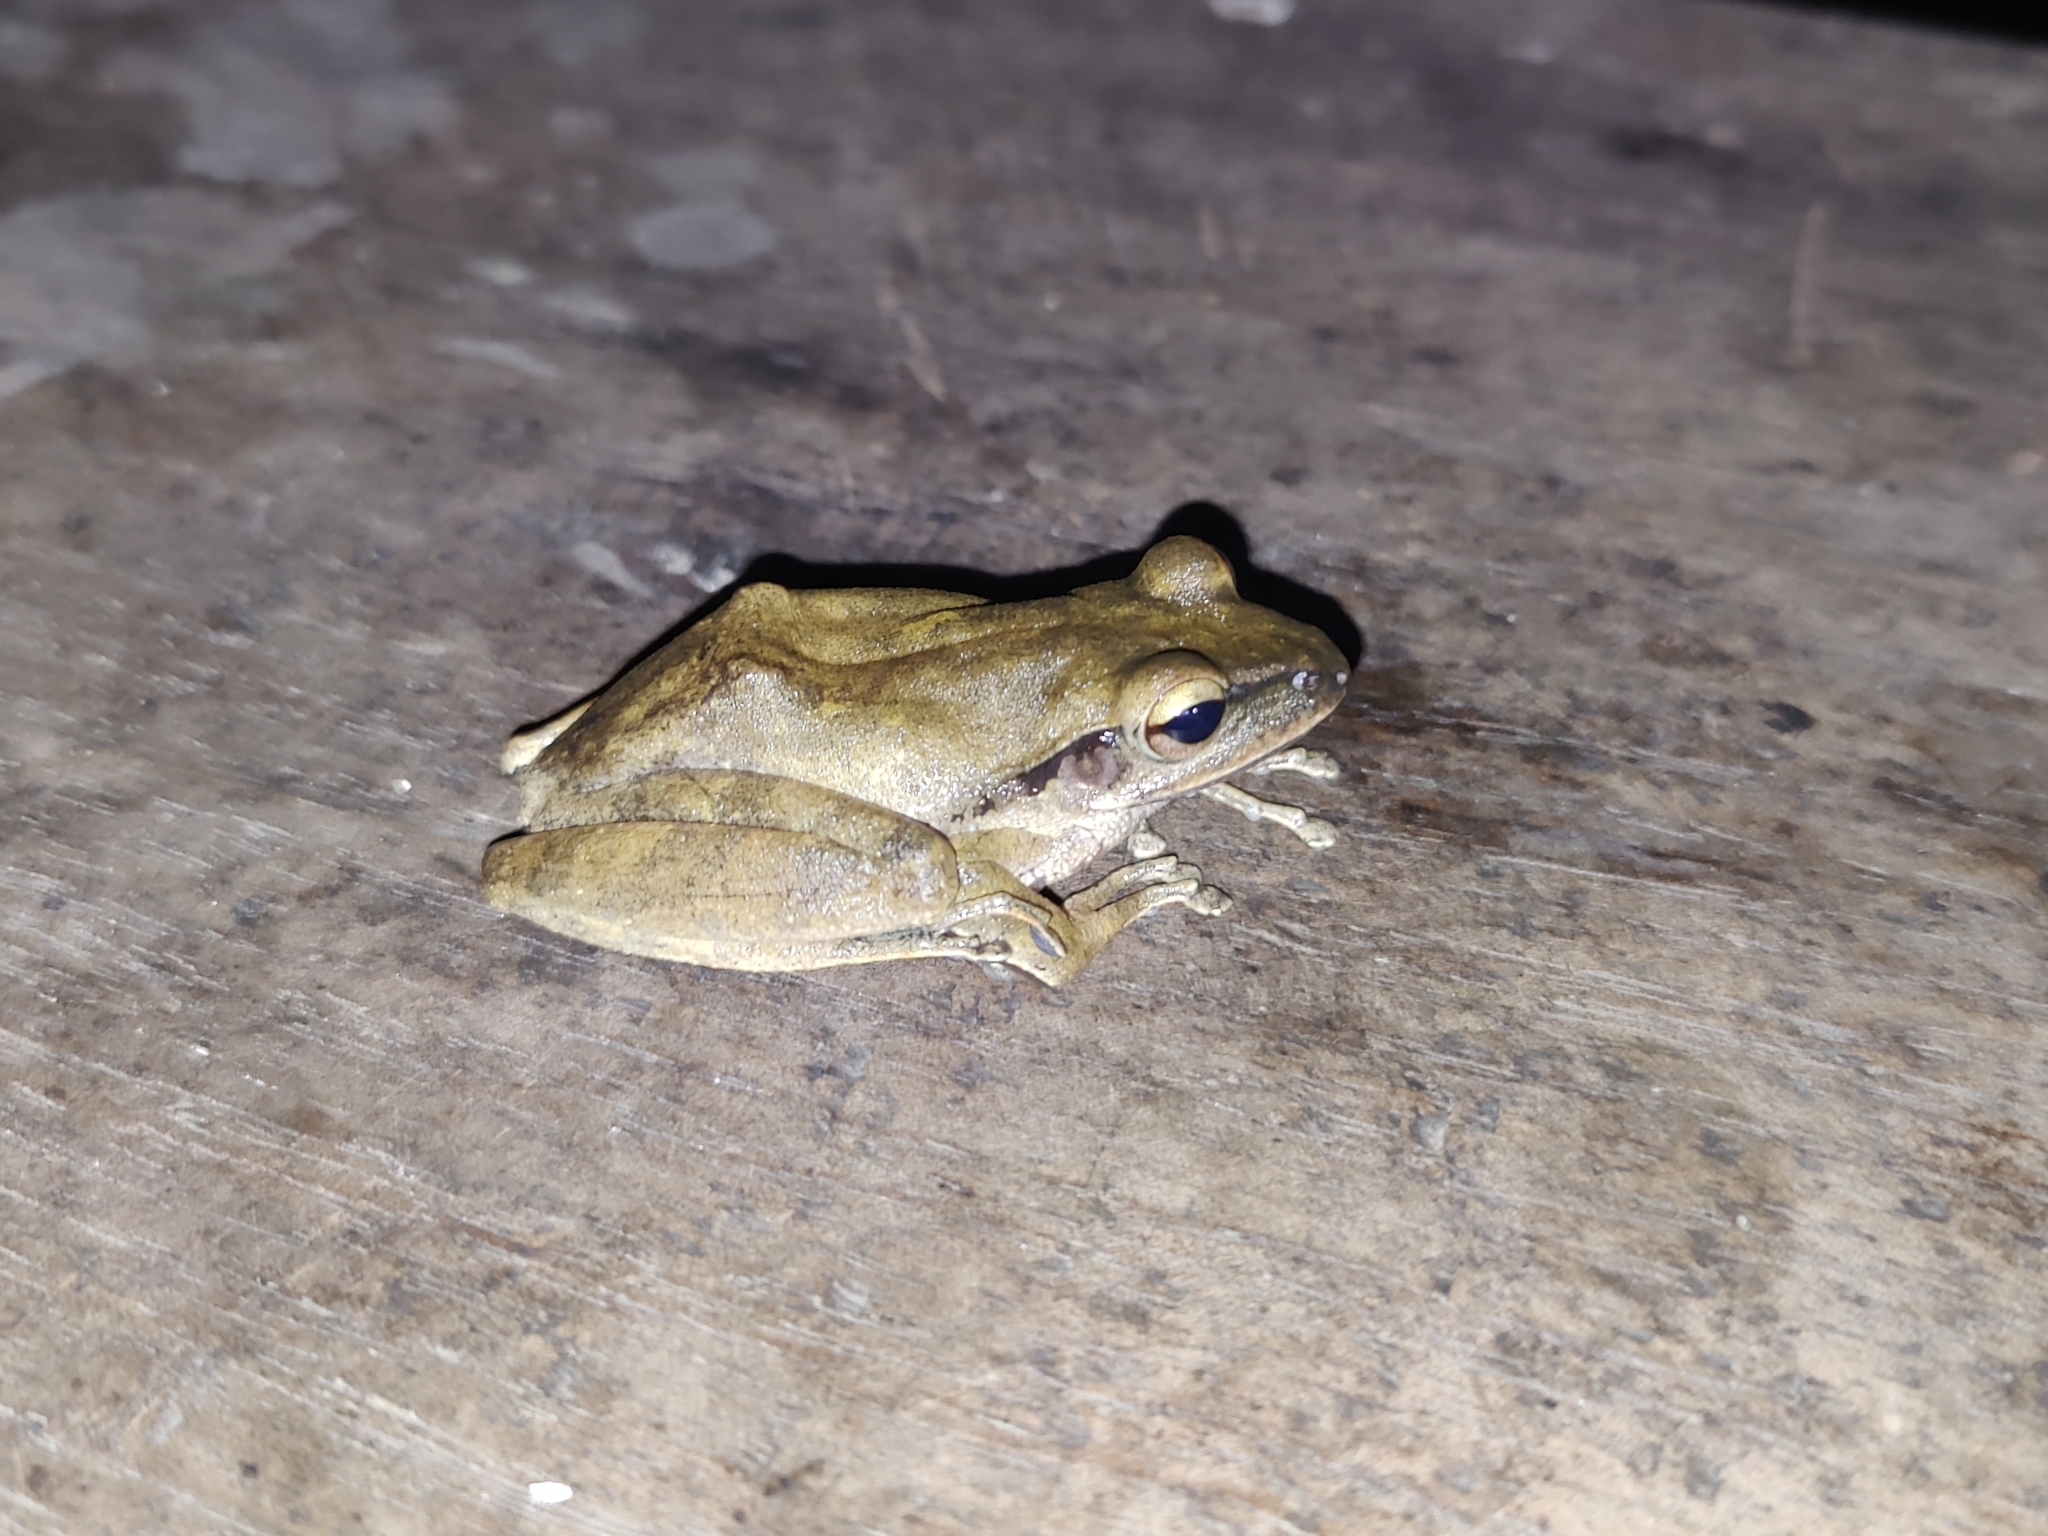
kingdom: Animalia
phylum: Chordata
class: Amphibia
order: Anura
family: Rhacophoridae
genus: Polypedates
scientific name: Polypedates
